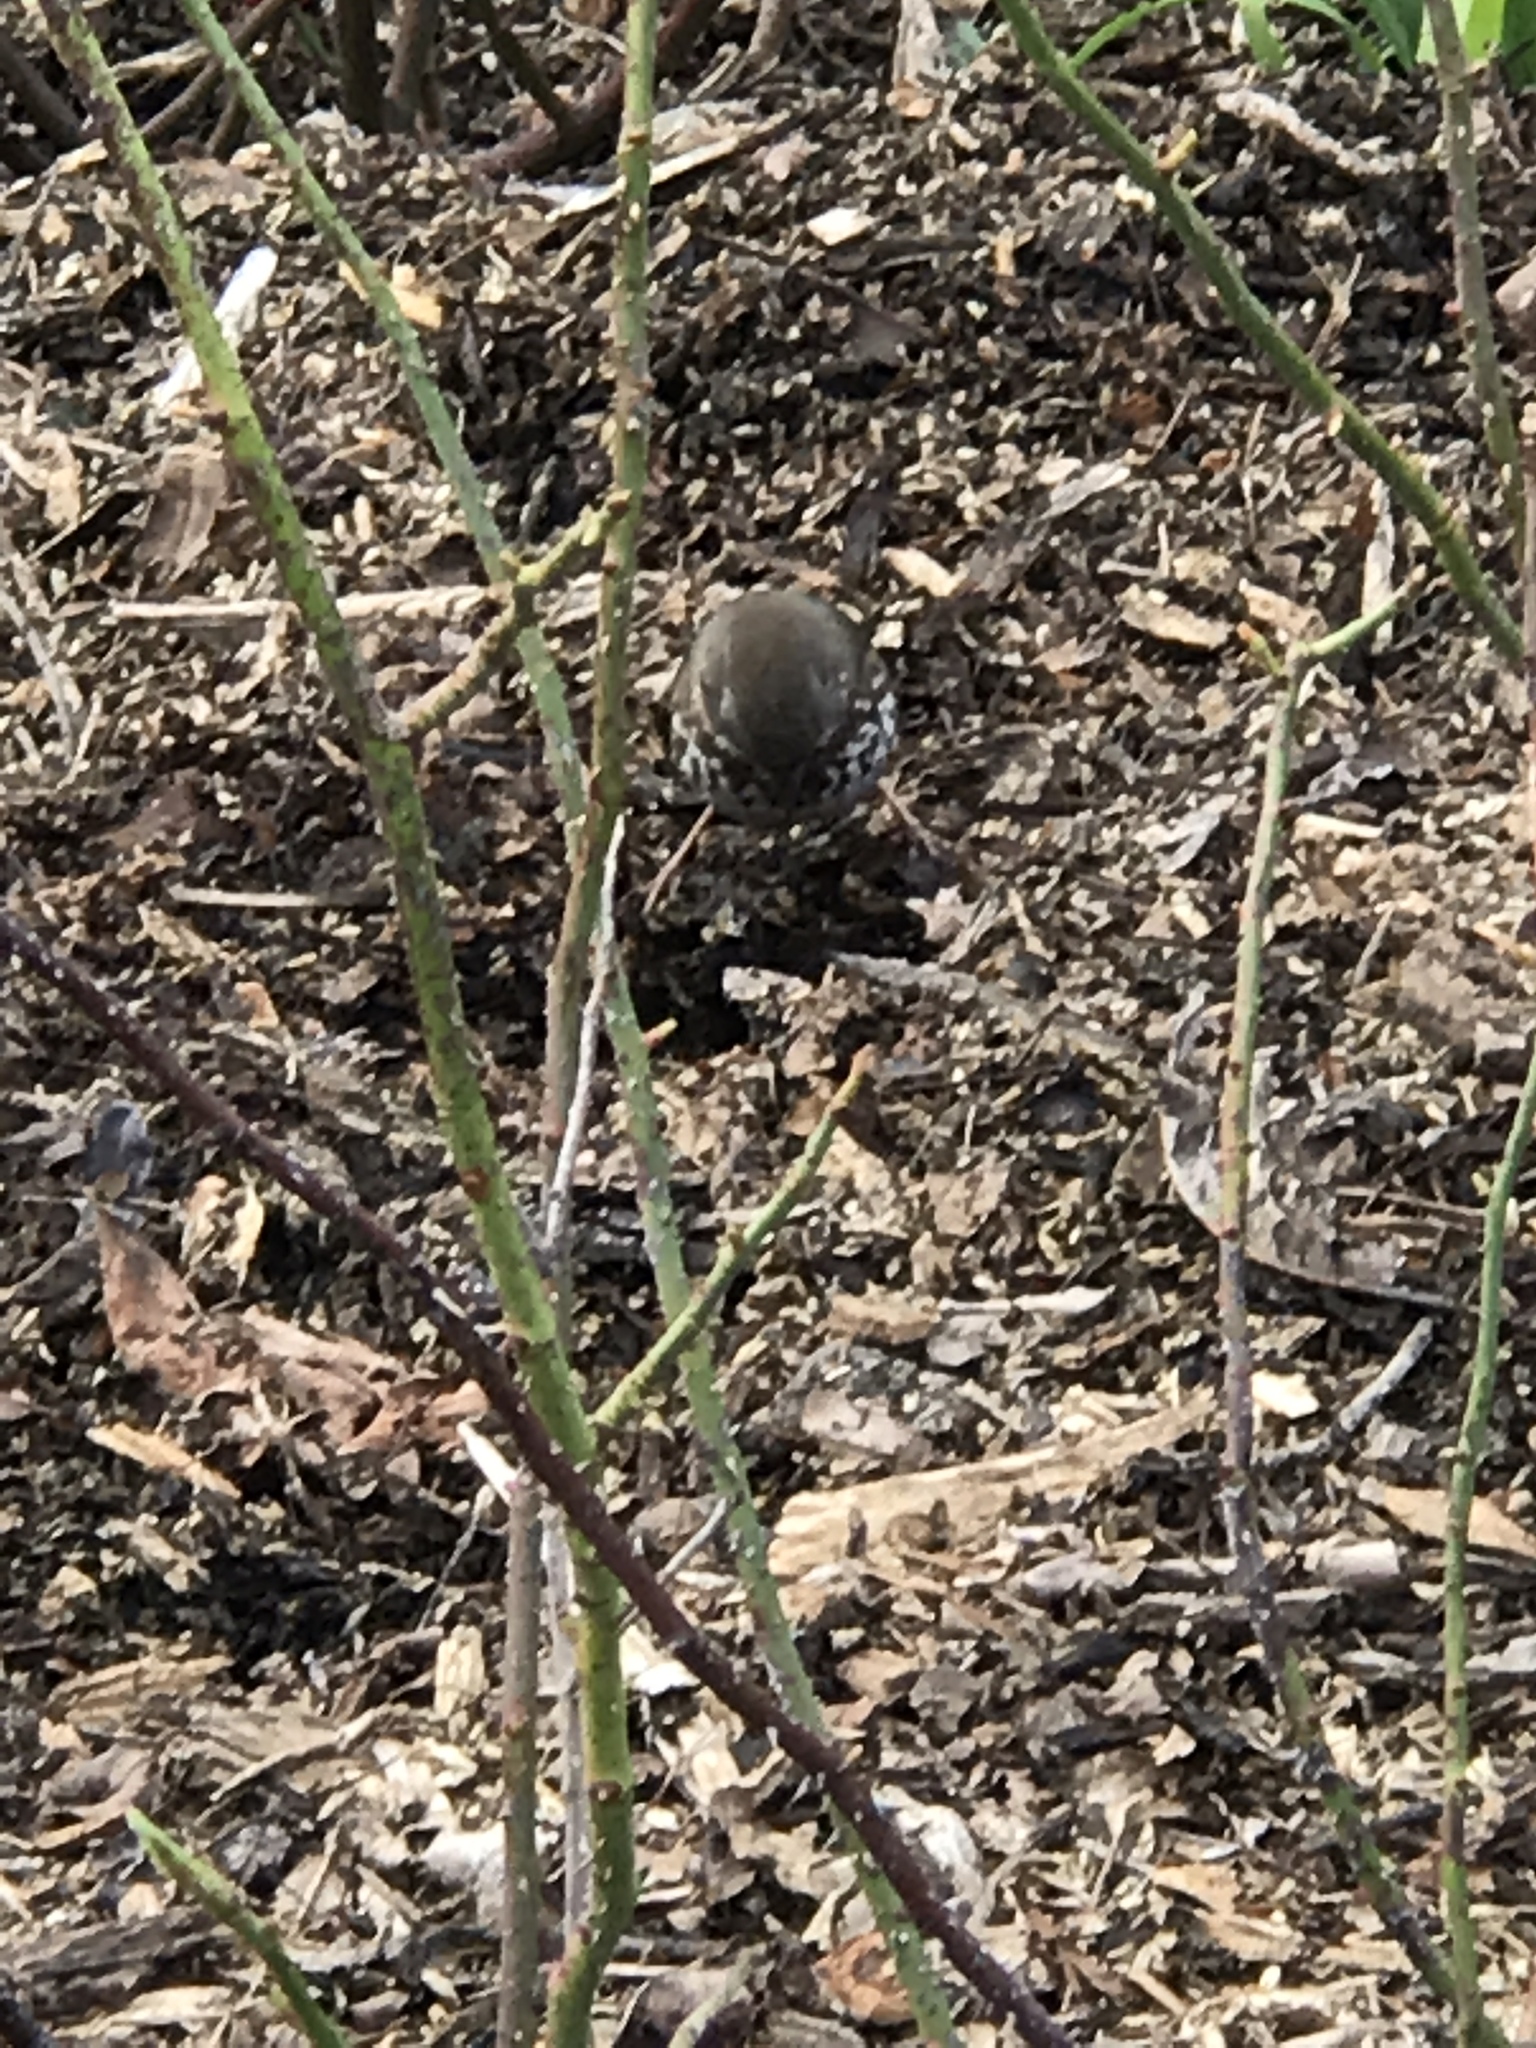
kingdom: Animalia
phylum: Chordata
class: Aves
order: Passeriformes
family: Passerellidae
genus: Passerella
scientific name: Passerella iliaca
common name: Fox sparrow
